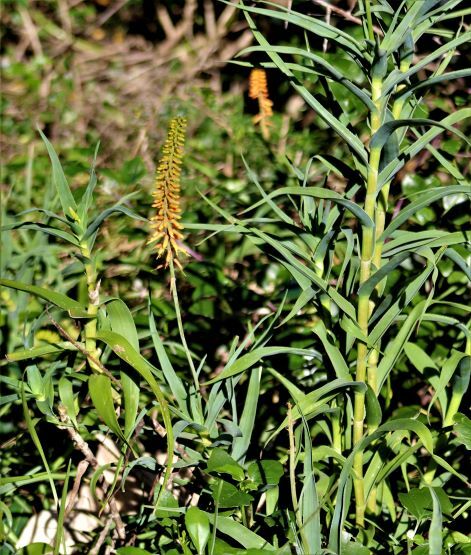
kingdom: Plantae
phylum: Tracheophyta
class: Liliopsida
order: Asparagales
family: Asphodelaceae
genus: Aloiampelos
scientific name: Aloiampelos tenuior
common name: Fence aloe
